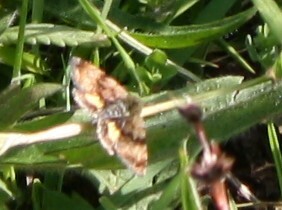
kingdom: Animalia
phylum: Arthropoda
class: Insecta
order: Lepidoptera
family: Noctuidae
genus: Panemeria
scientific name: Panemeria tenebrata
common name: Small yellow underwing
